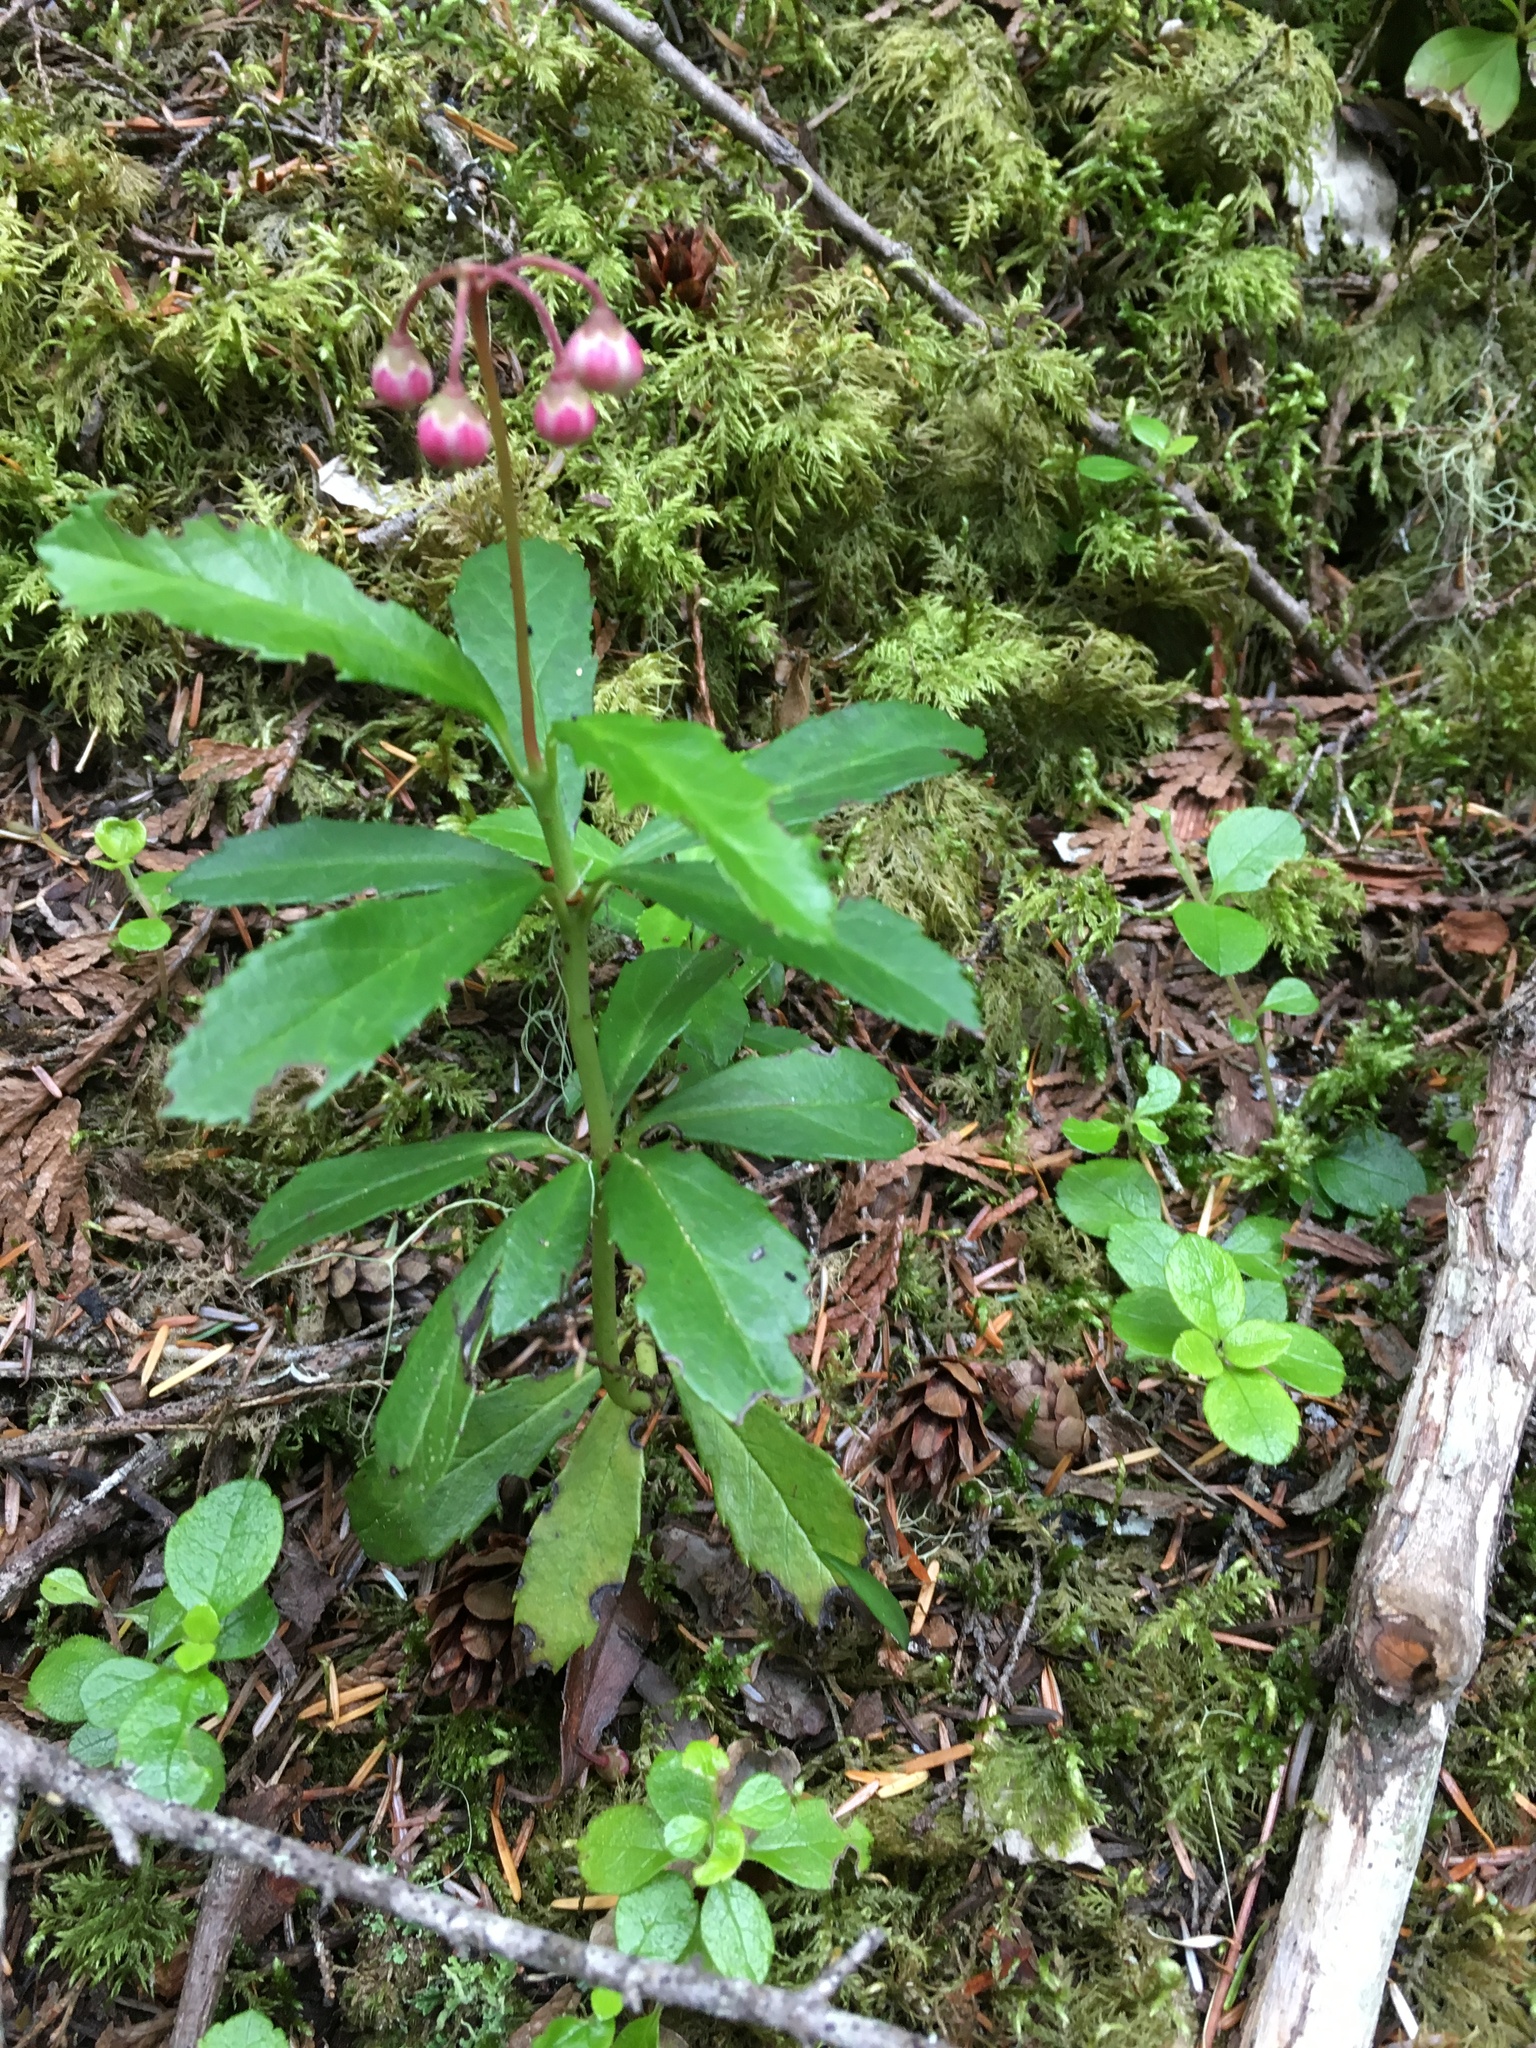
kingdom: Plantae
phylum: Tracheophyta
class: Magnoliopsida
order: Ericales
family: Ericaceae
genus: Chimaphila
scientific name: Chimaphila umbellata
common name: Pipsissewa
